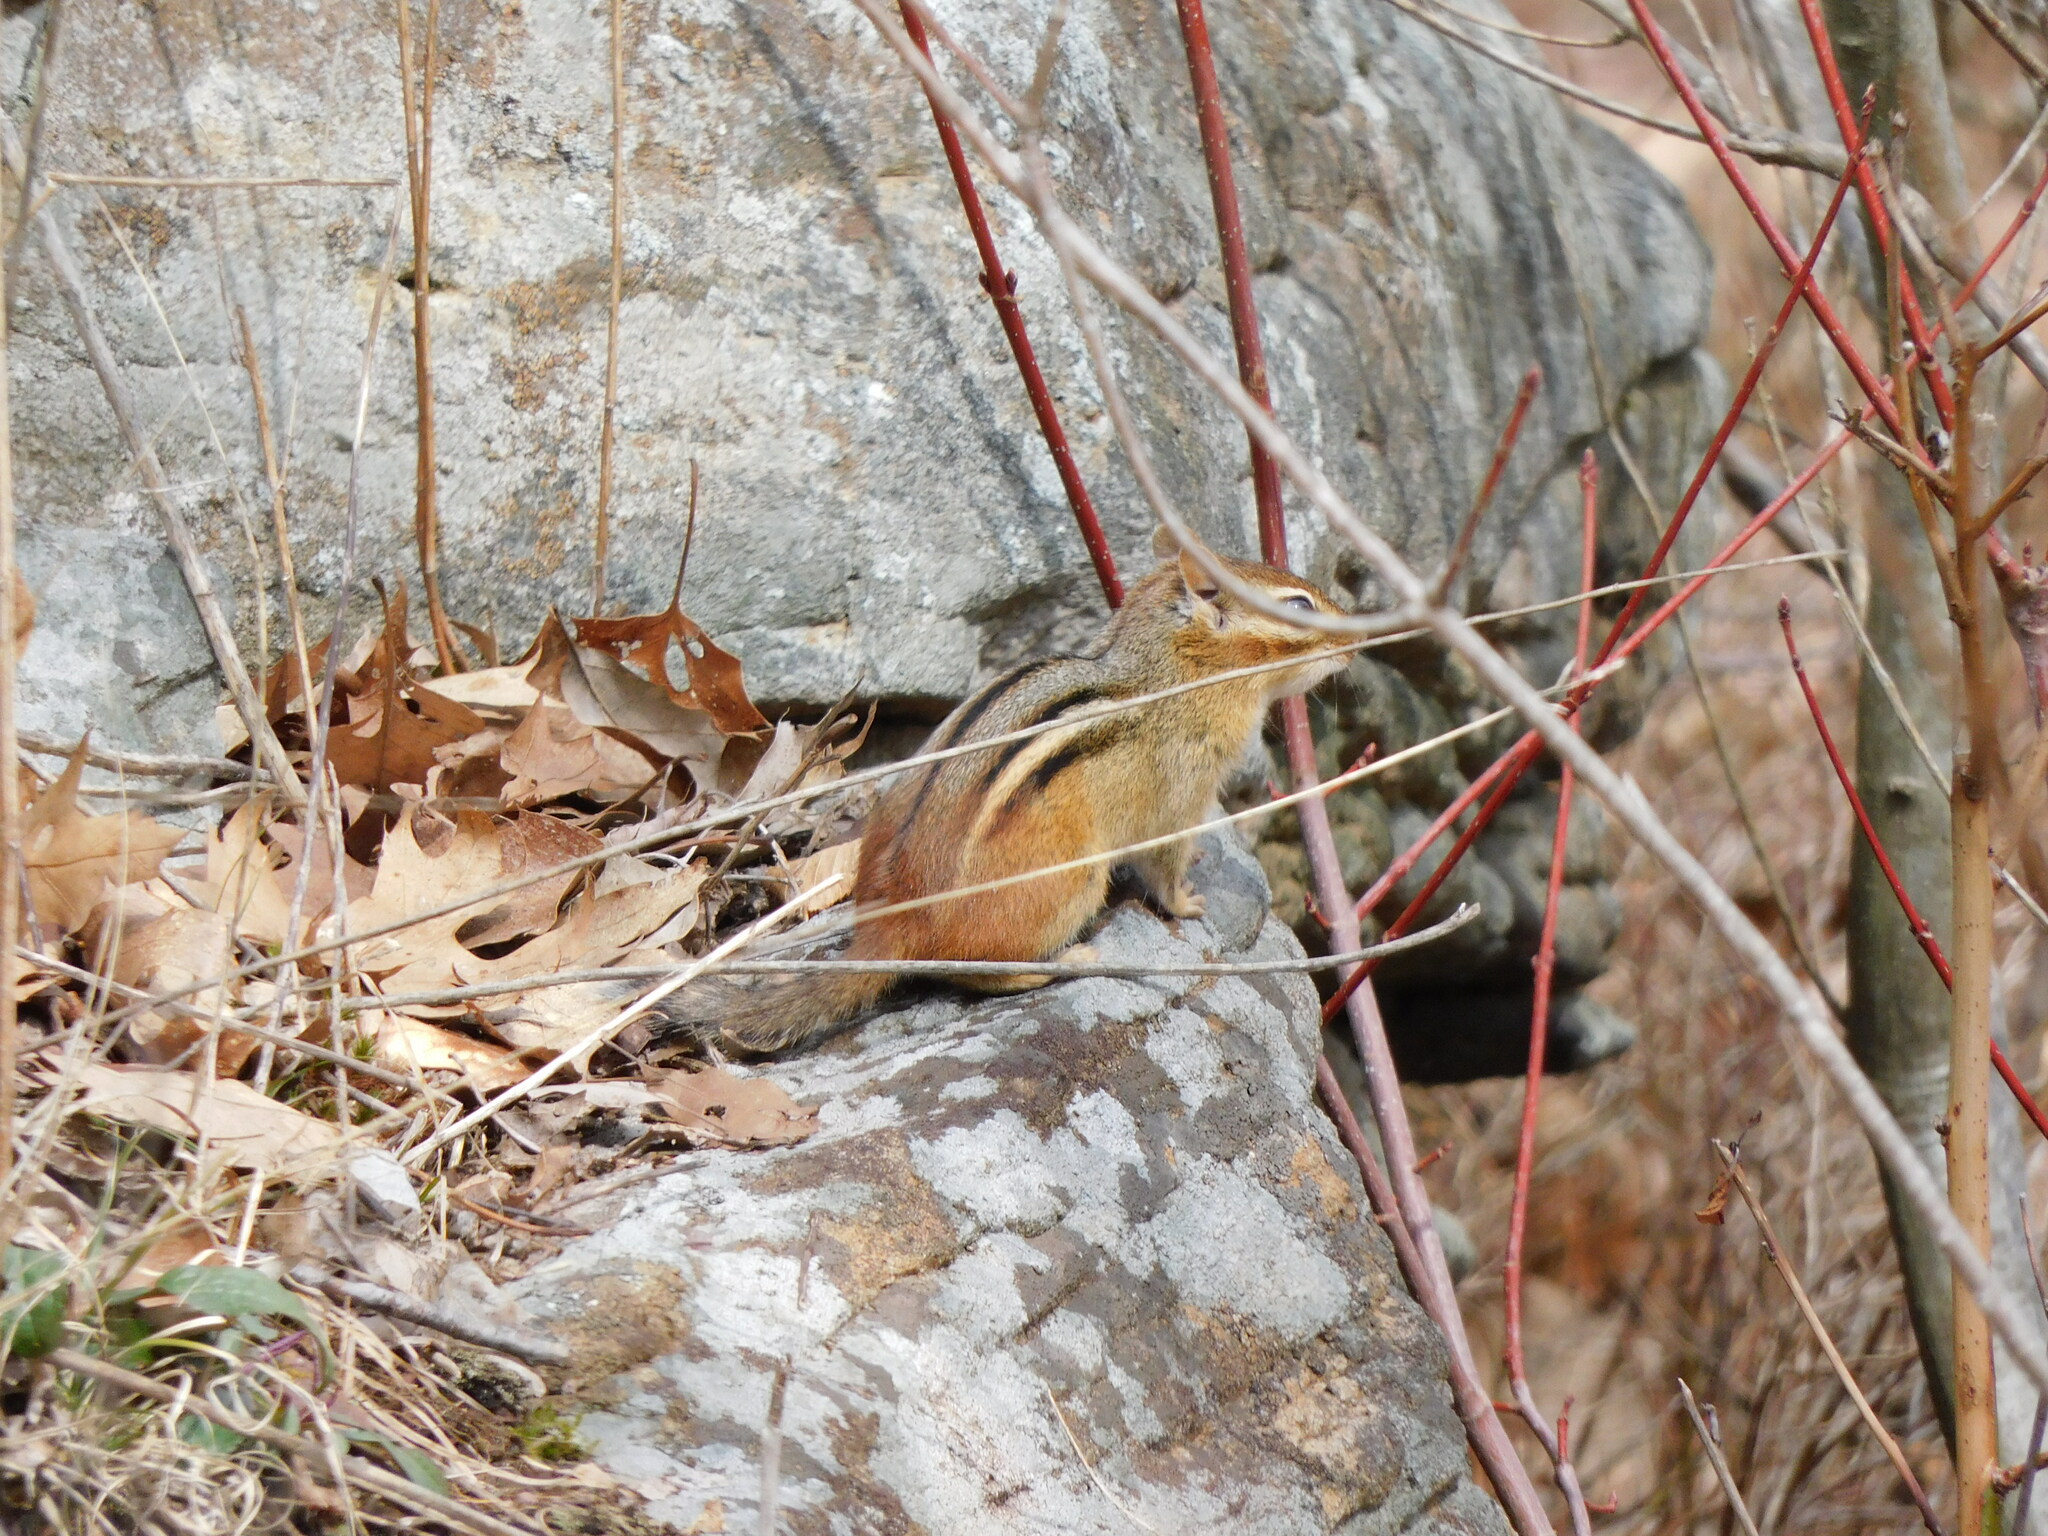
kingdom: Animalia
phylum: Chordata
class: Mammalia
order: Rodentia
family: Sciuridae
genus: Tamias
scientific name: Tamias striatus
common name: Eastern chipmunk
